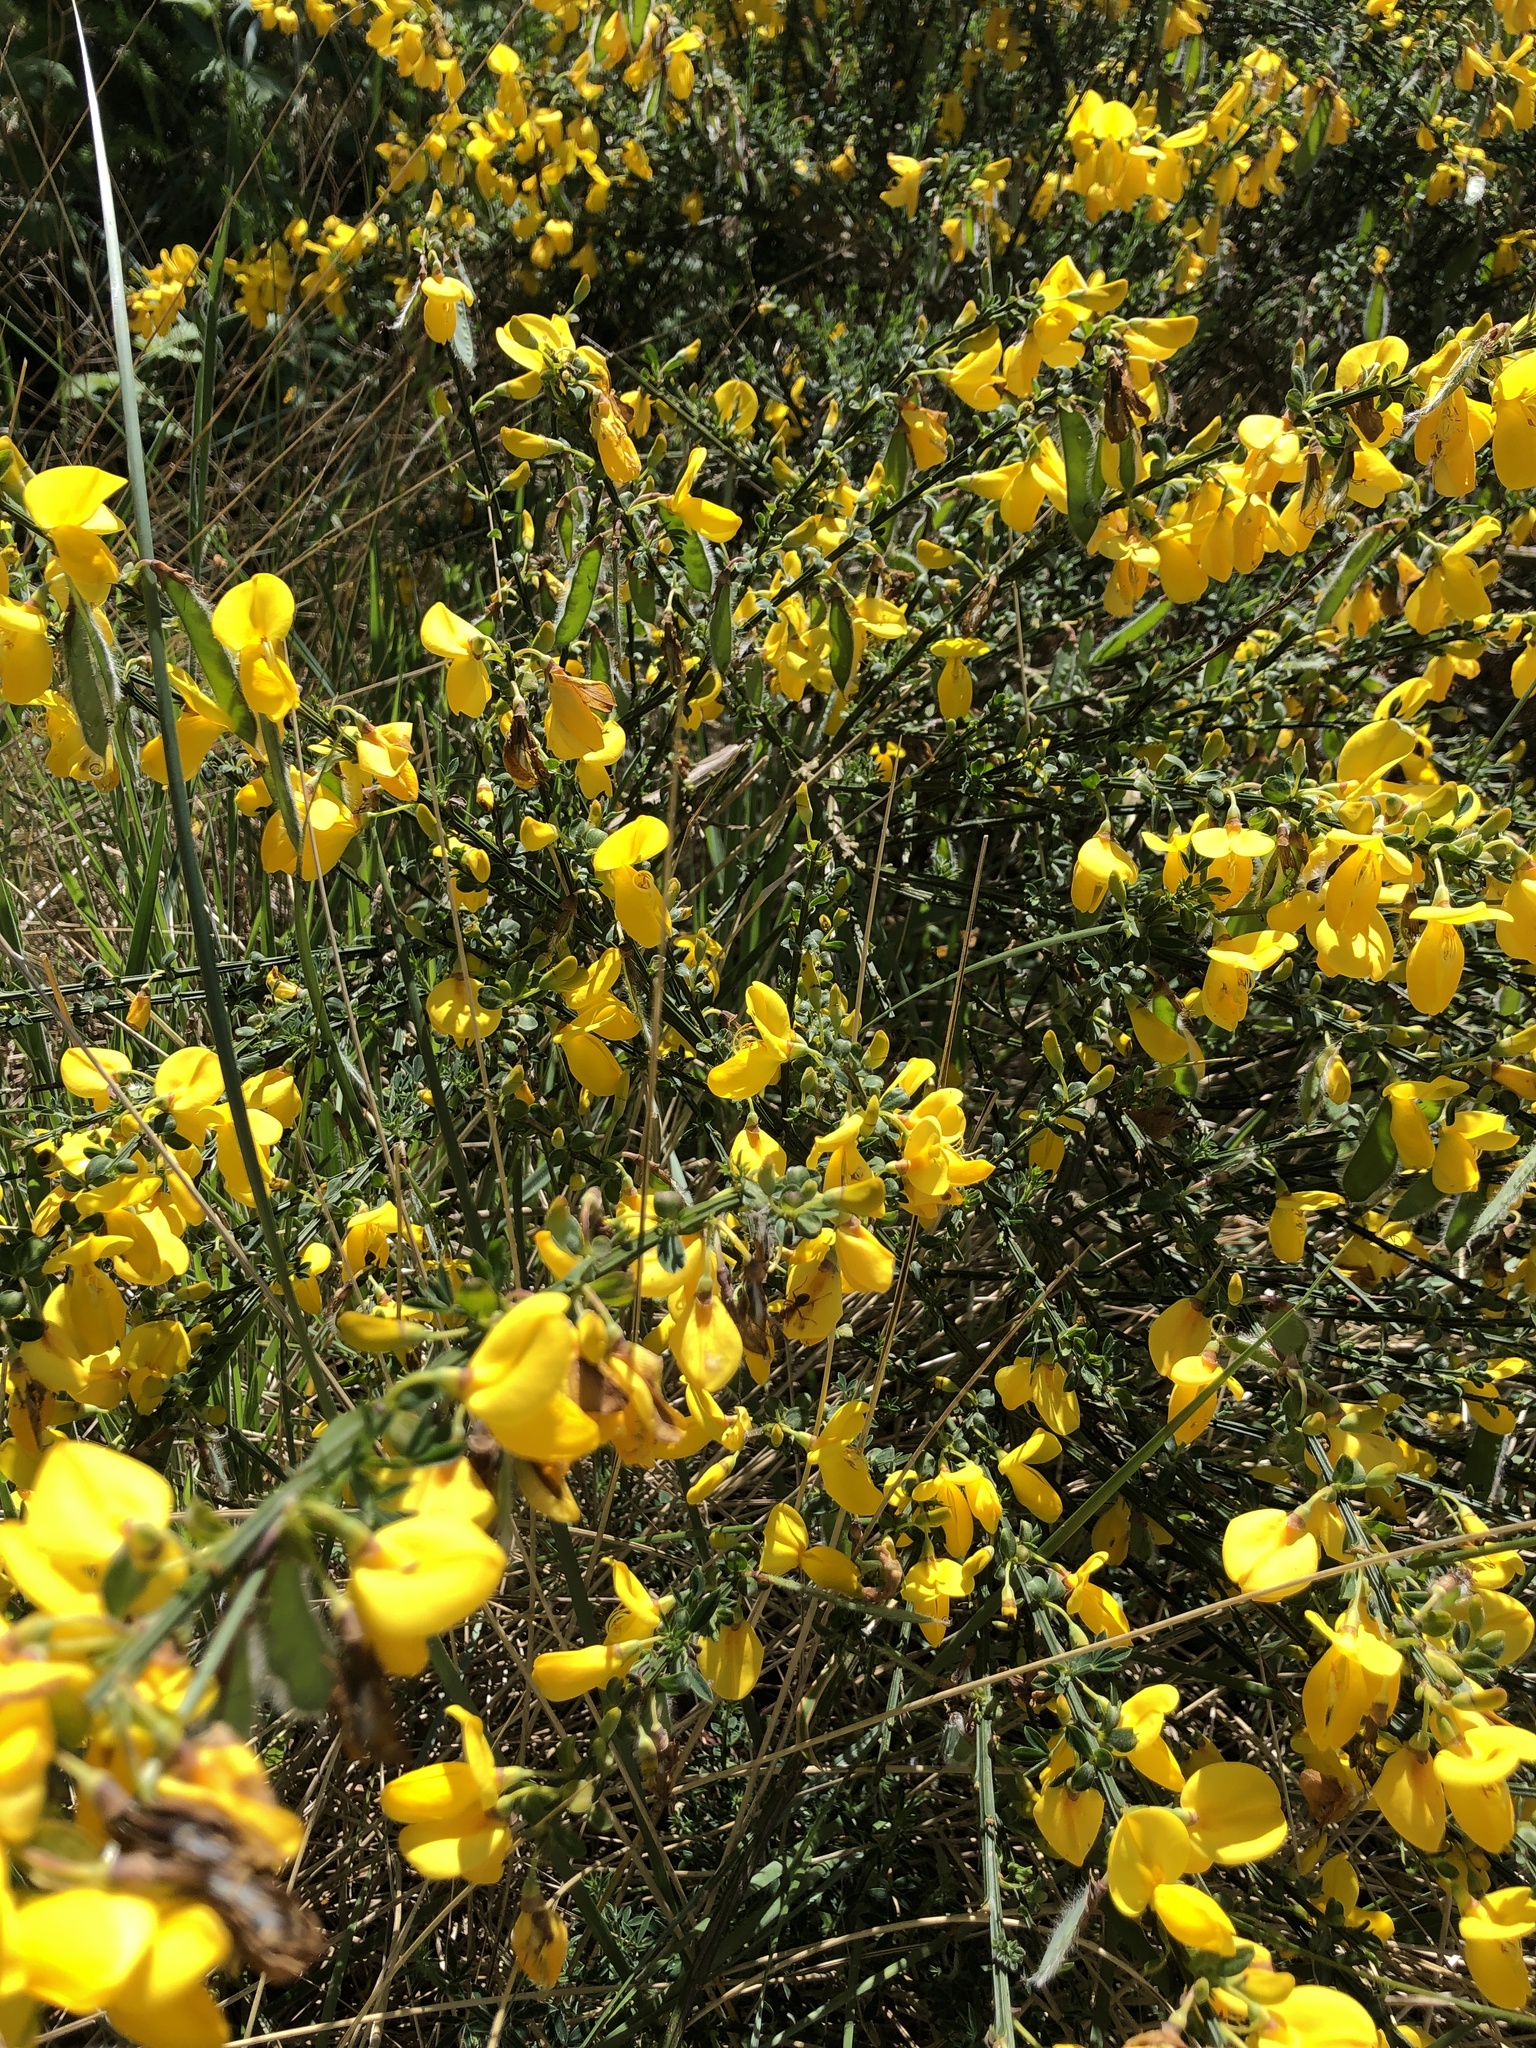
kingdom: Plantae
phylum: Tracheophyta
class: Magnoliopsida
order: Fabales
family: Fabaceae
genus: Cytisus
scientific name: Cytisus scoparius
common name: Scotch broom
